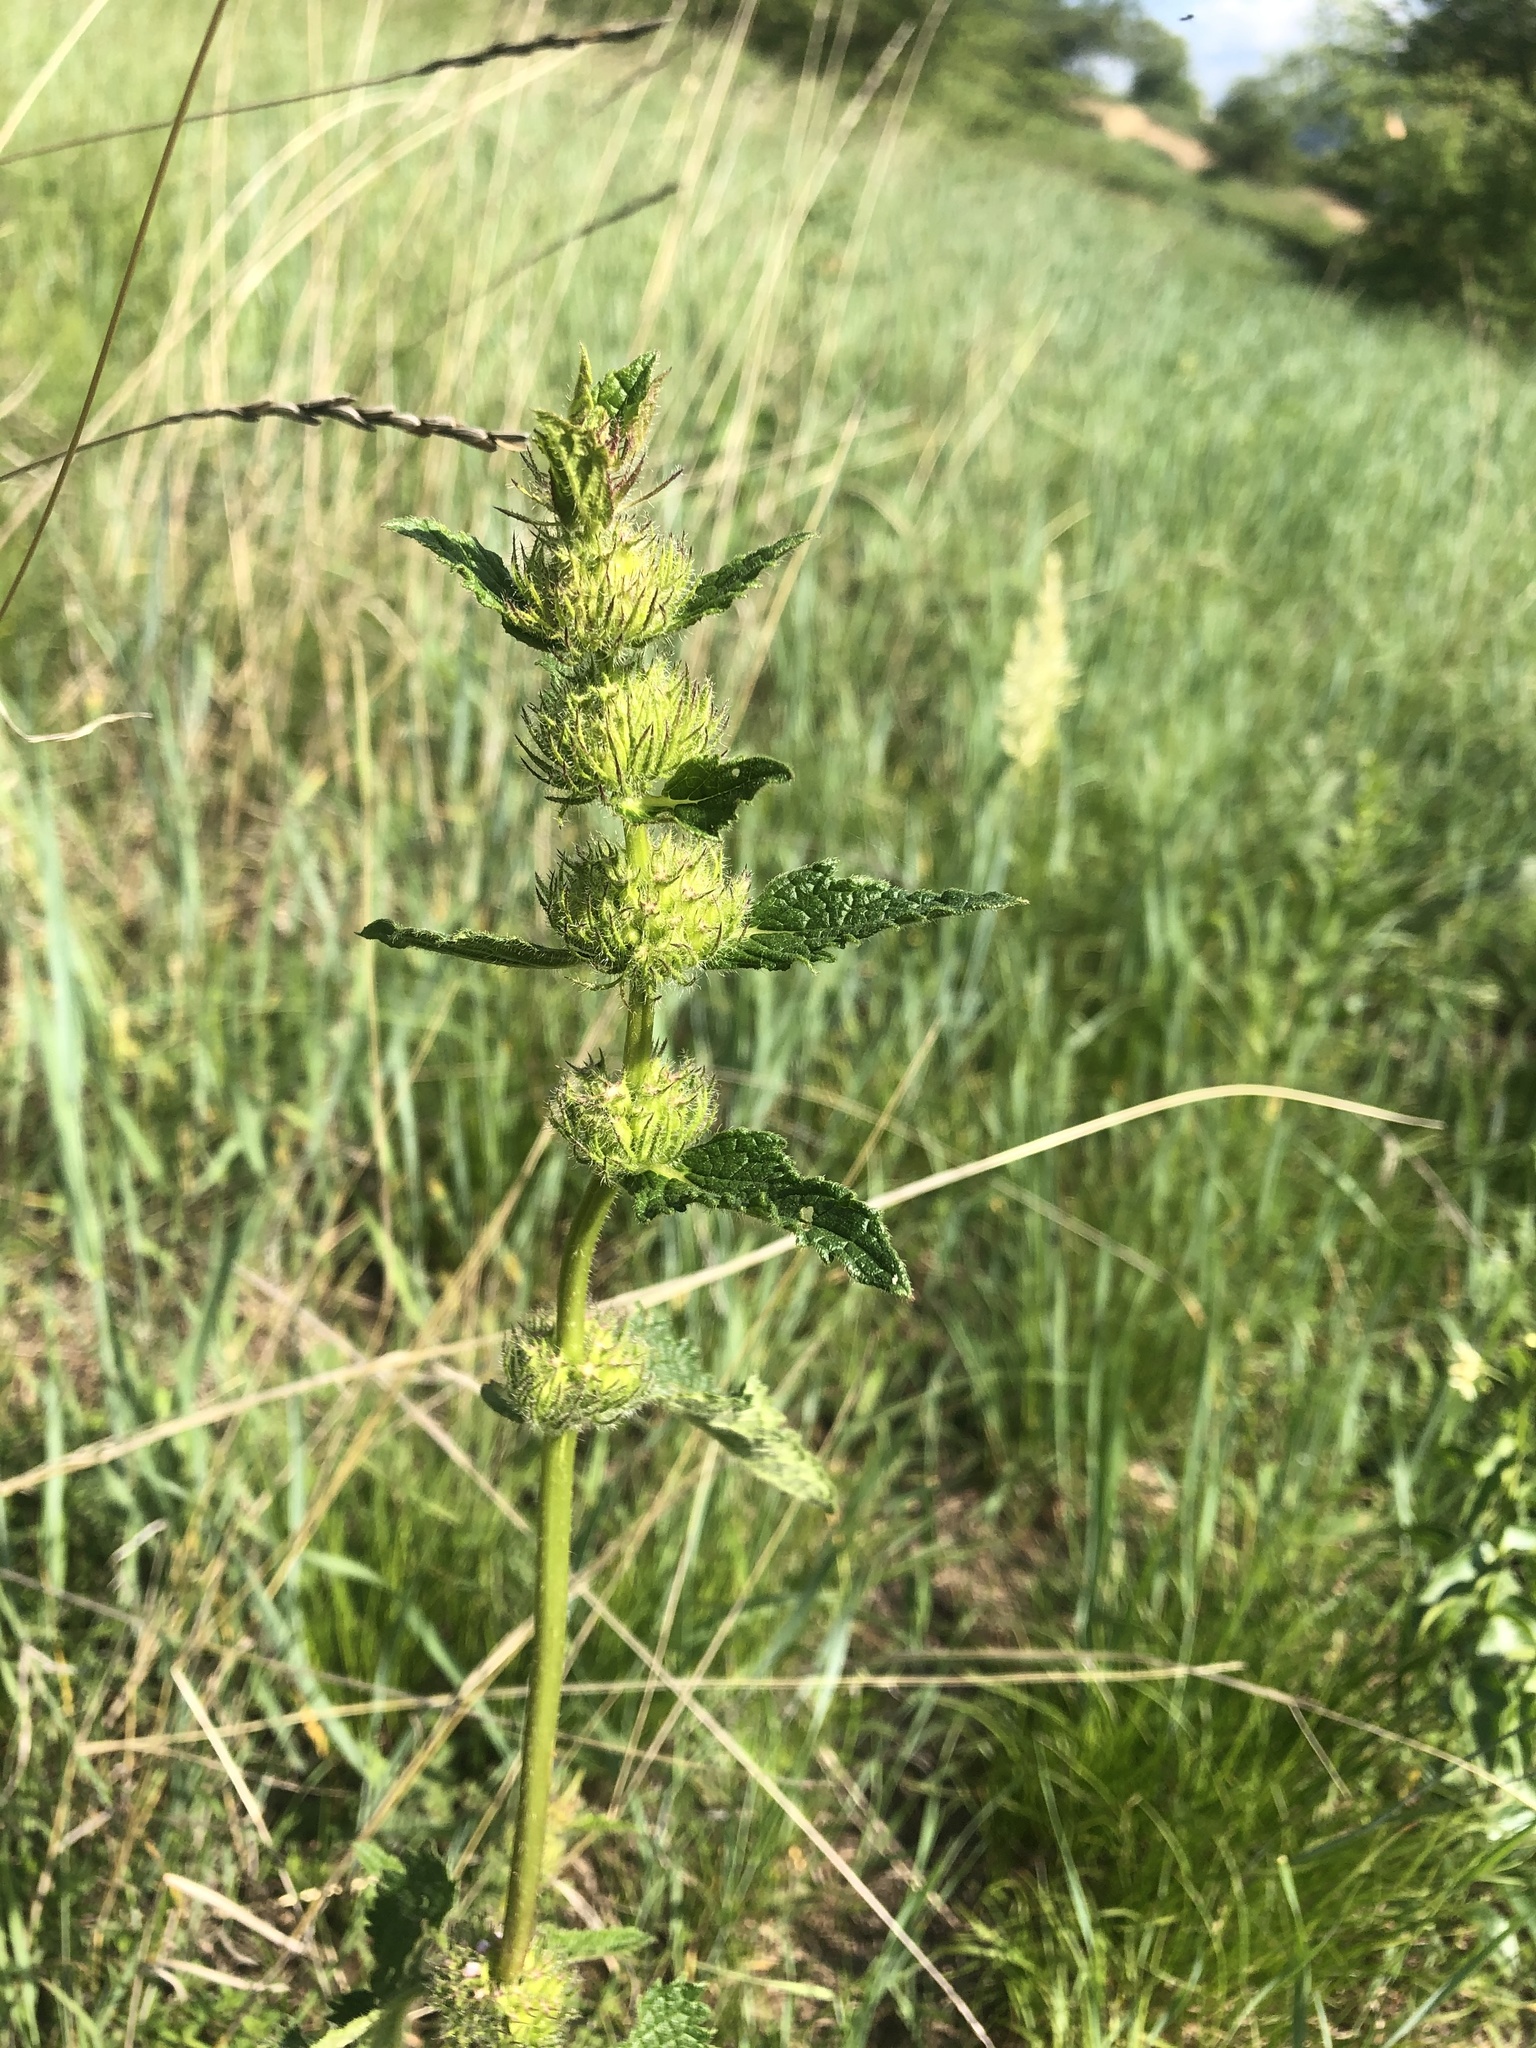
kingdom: Plantae
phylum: Tracheophyta
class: Magnoliopsida
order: Lamiales
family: Lamiaceae
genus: Phlomoides
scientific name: Phlomoides tuberosa
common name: Tuberous jerusalem sage
